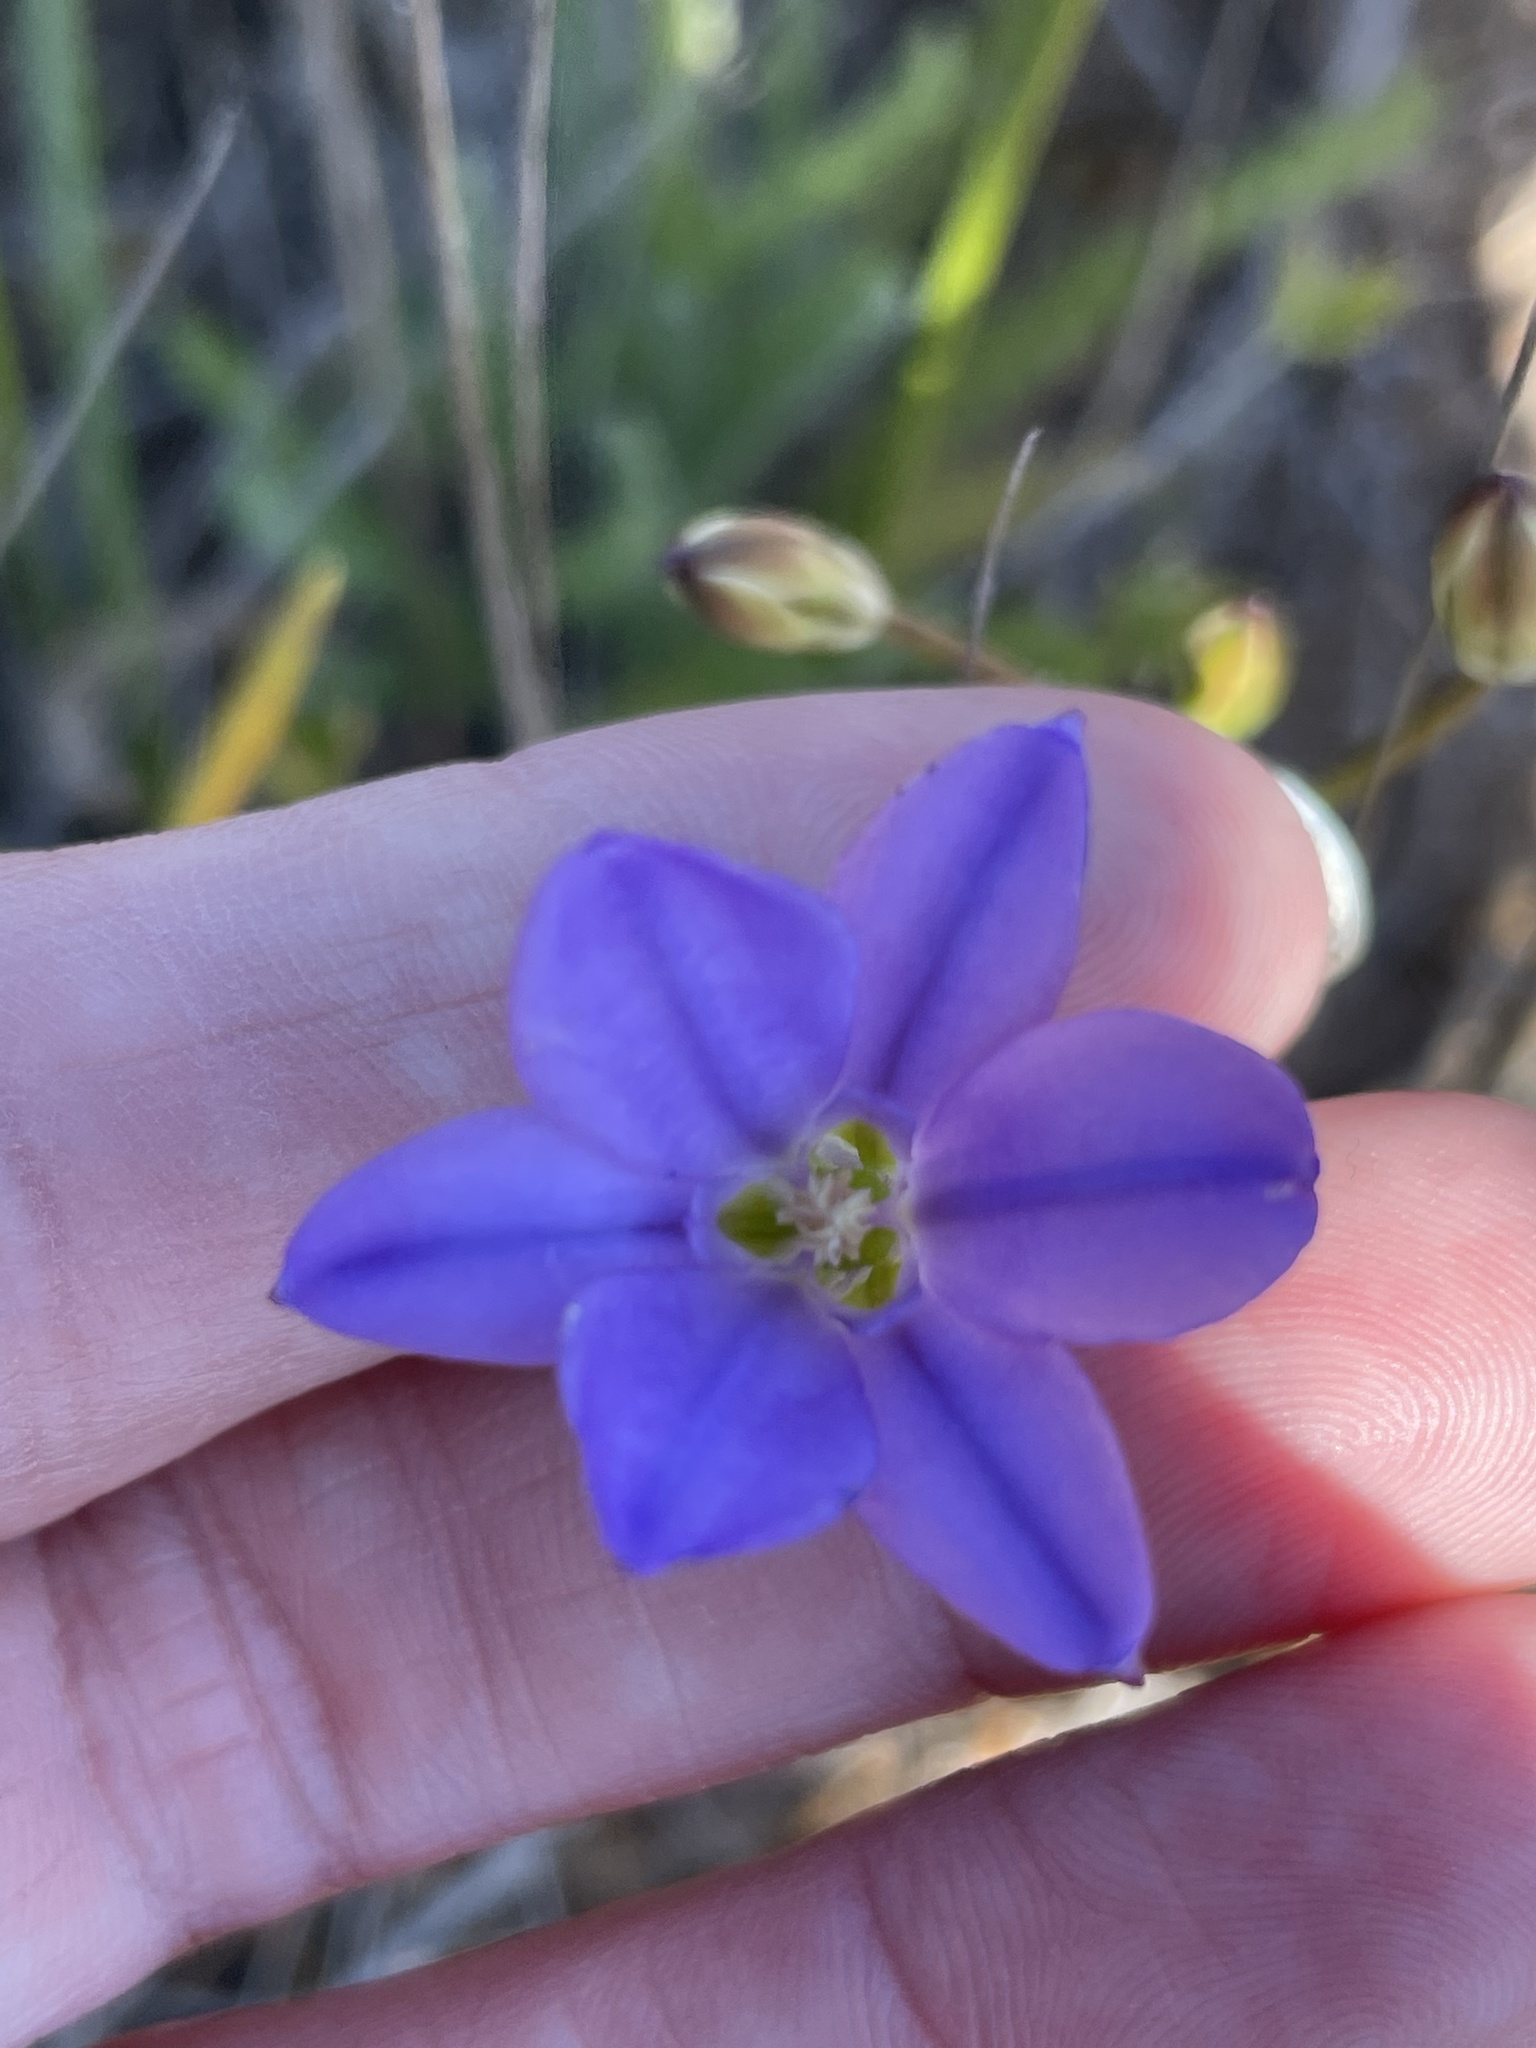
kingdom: Plantae
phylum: Tracheophyta
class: Liliopsida
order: Asparagales
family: Asparagaceae
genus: Brodiaea
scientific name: Brodiaea kinkiensis
